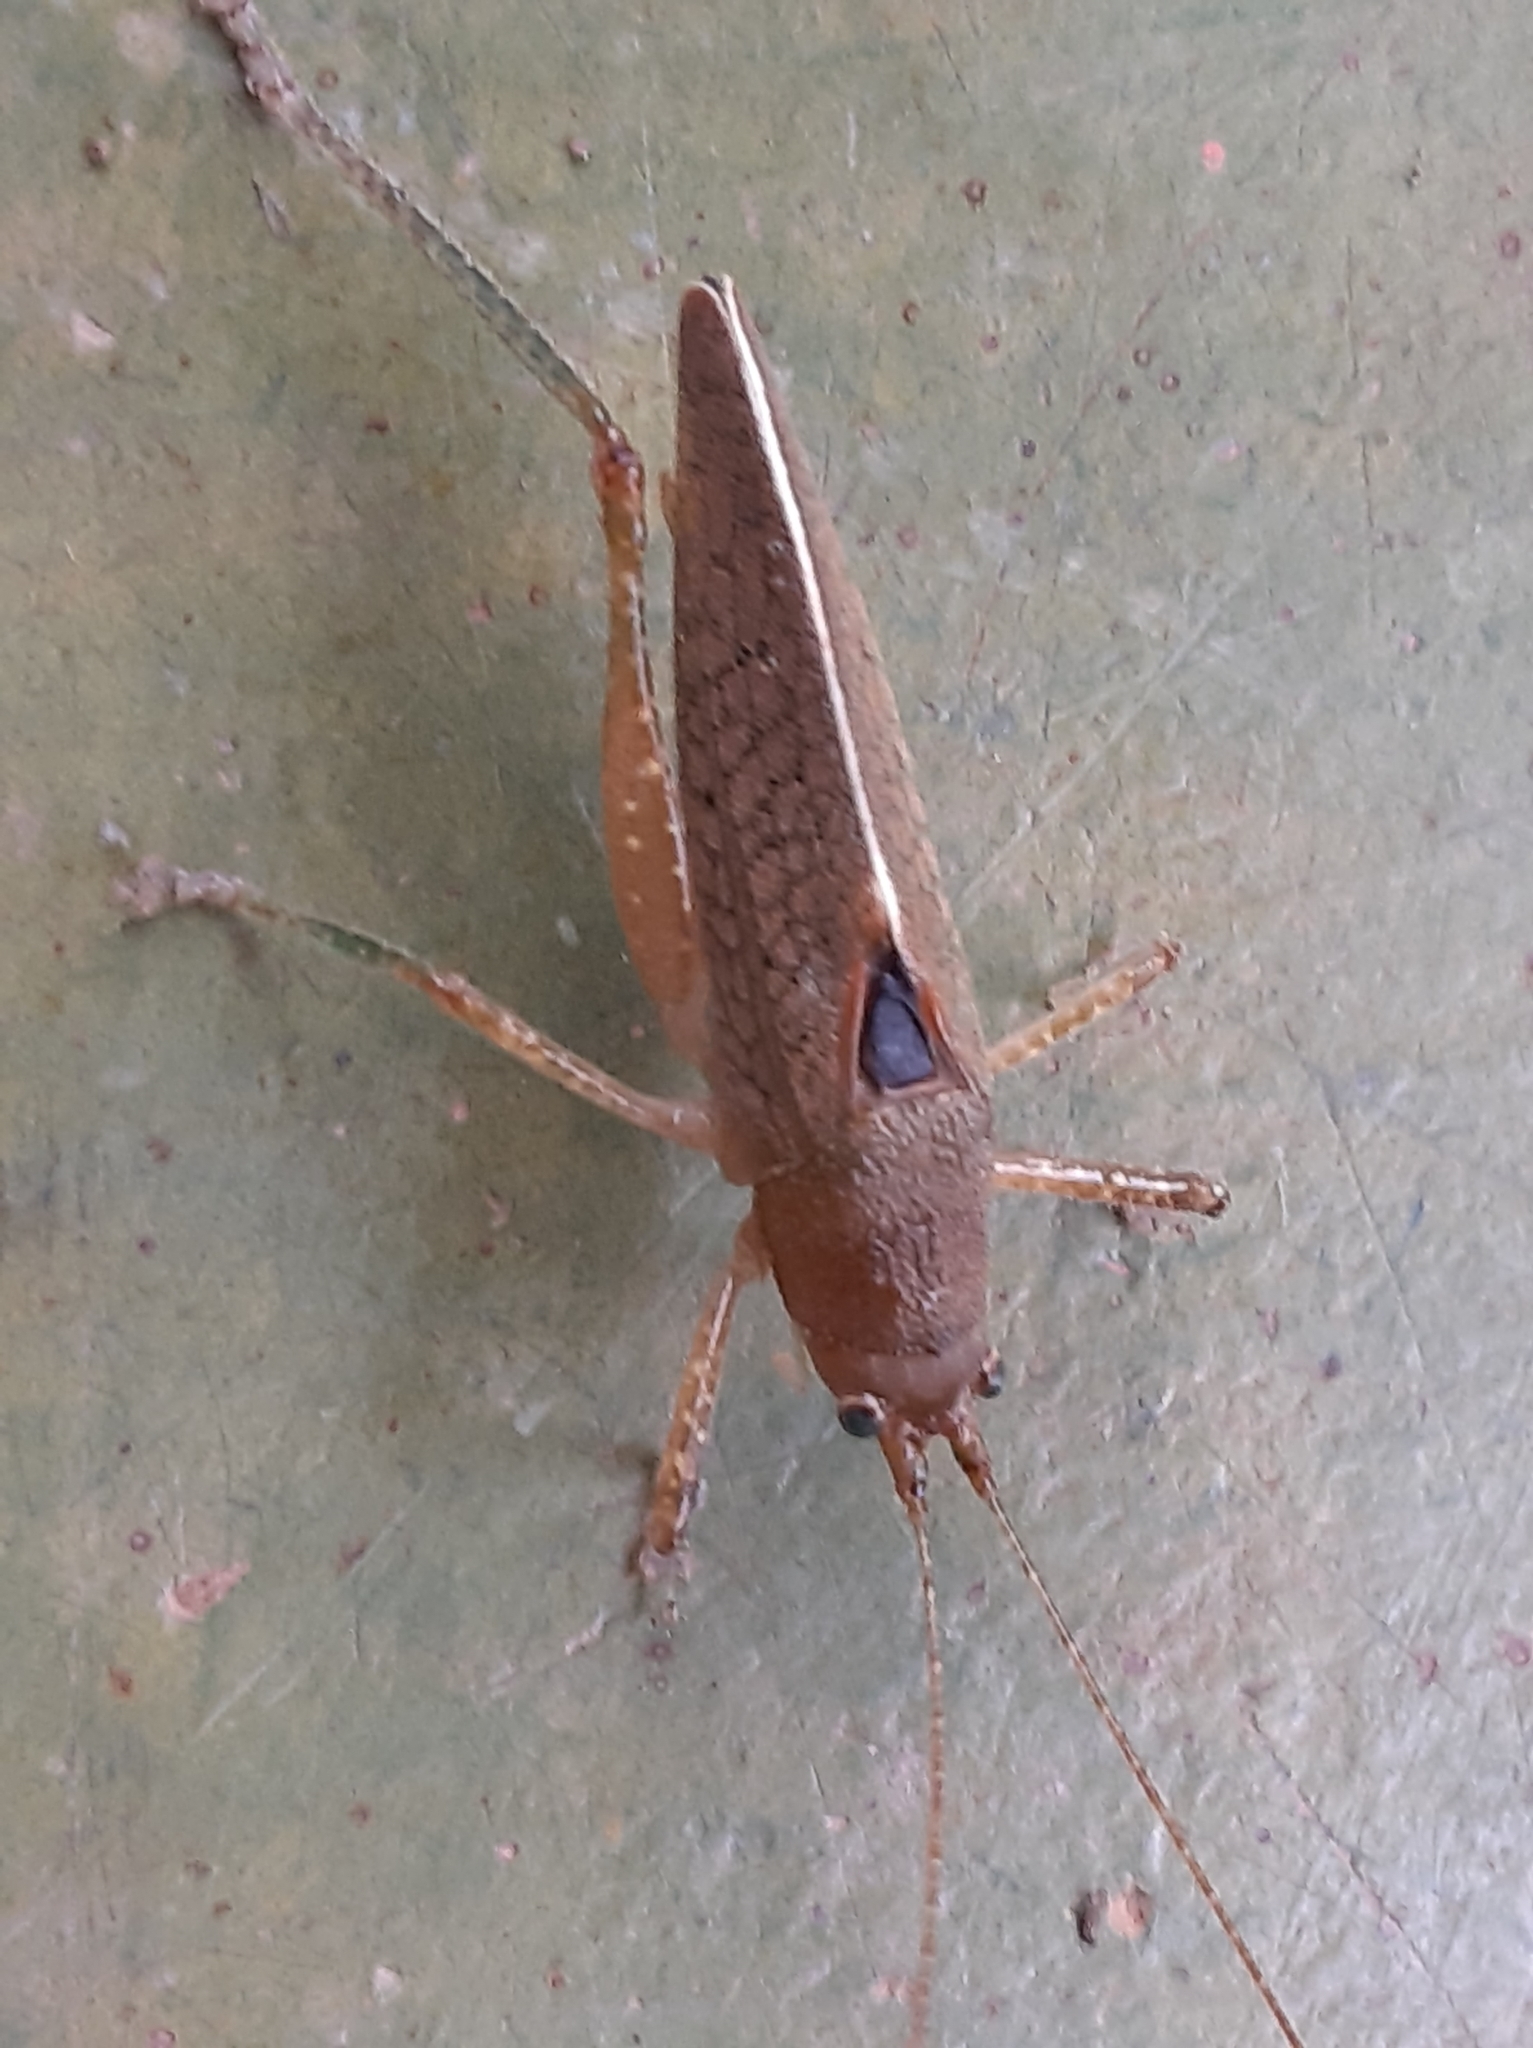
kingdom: Animalia
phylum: Arthropoda
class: Insecta
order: Orthoptera
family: Tettigoniidae
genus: Thamnobates
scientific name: Thamnobates subfalcata
